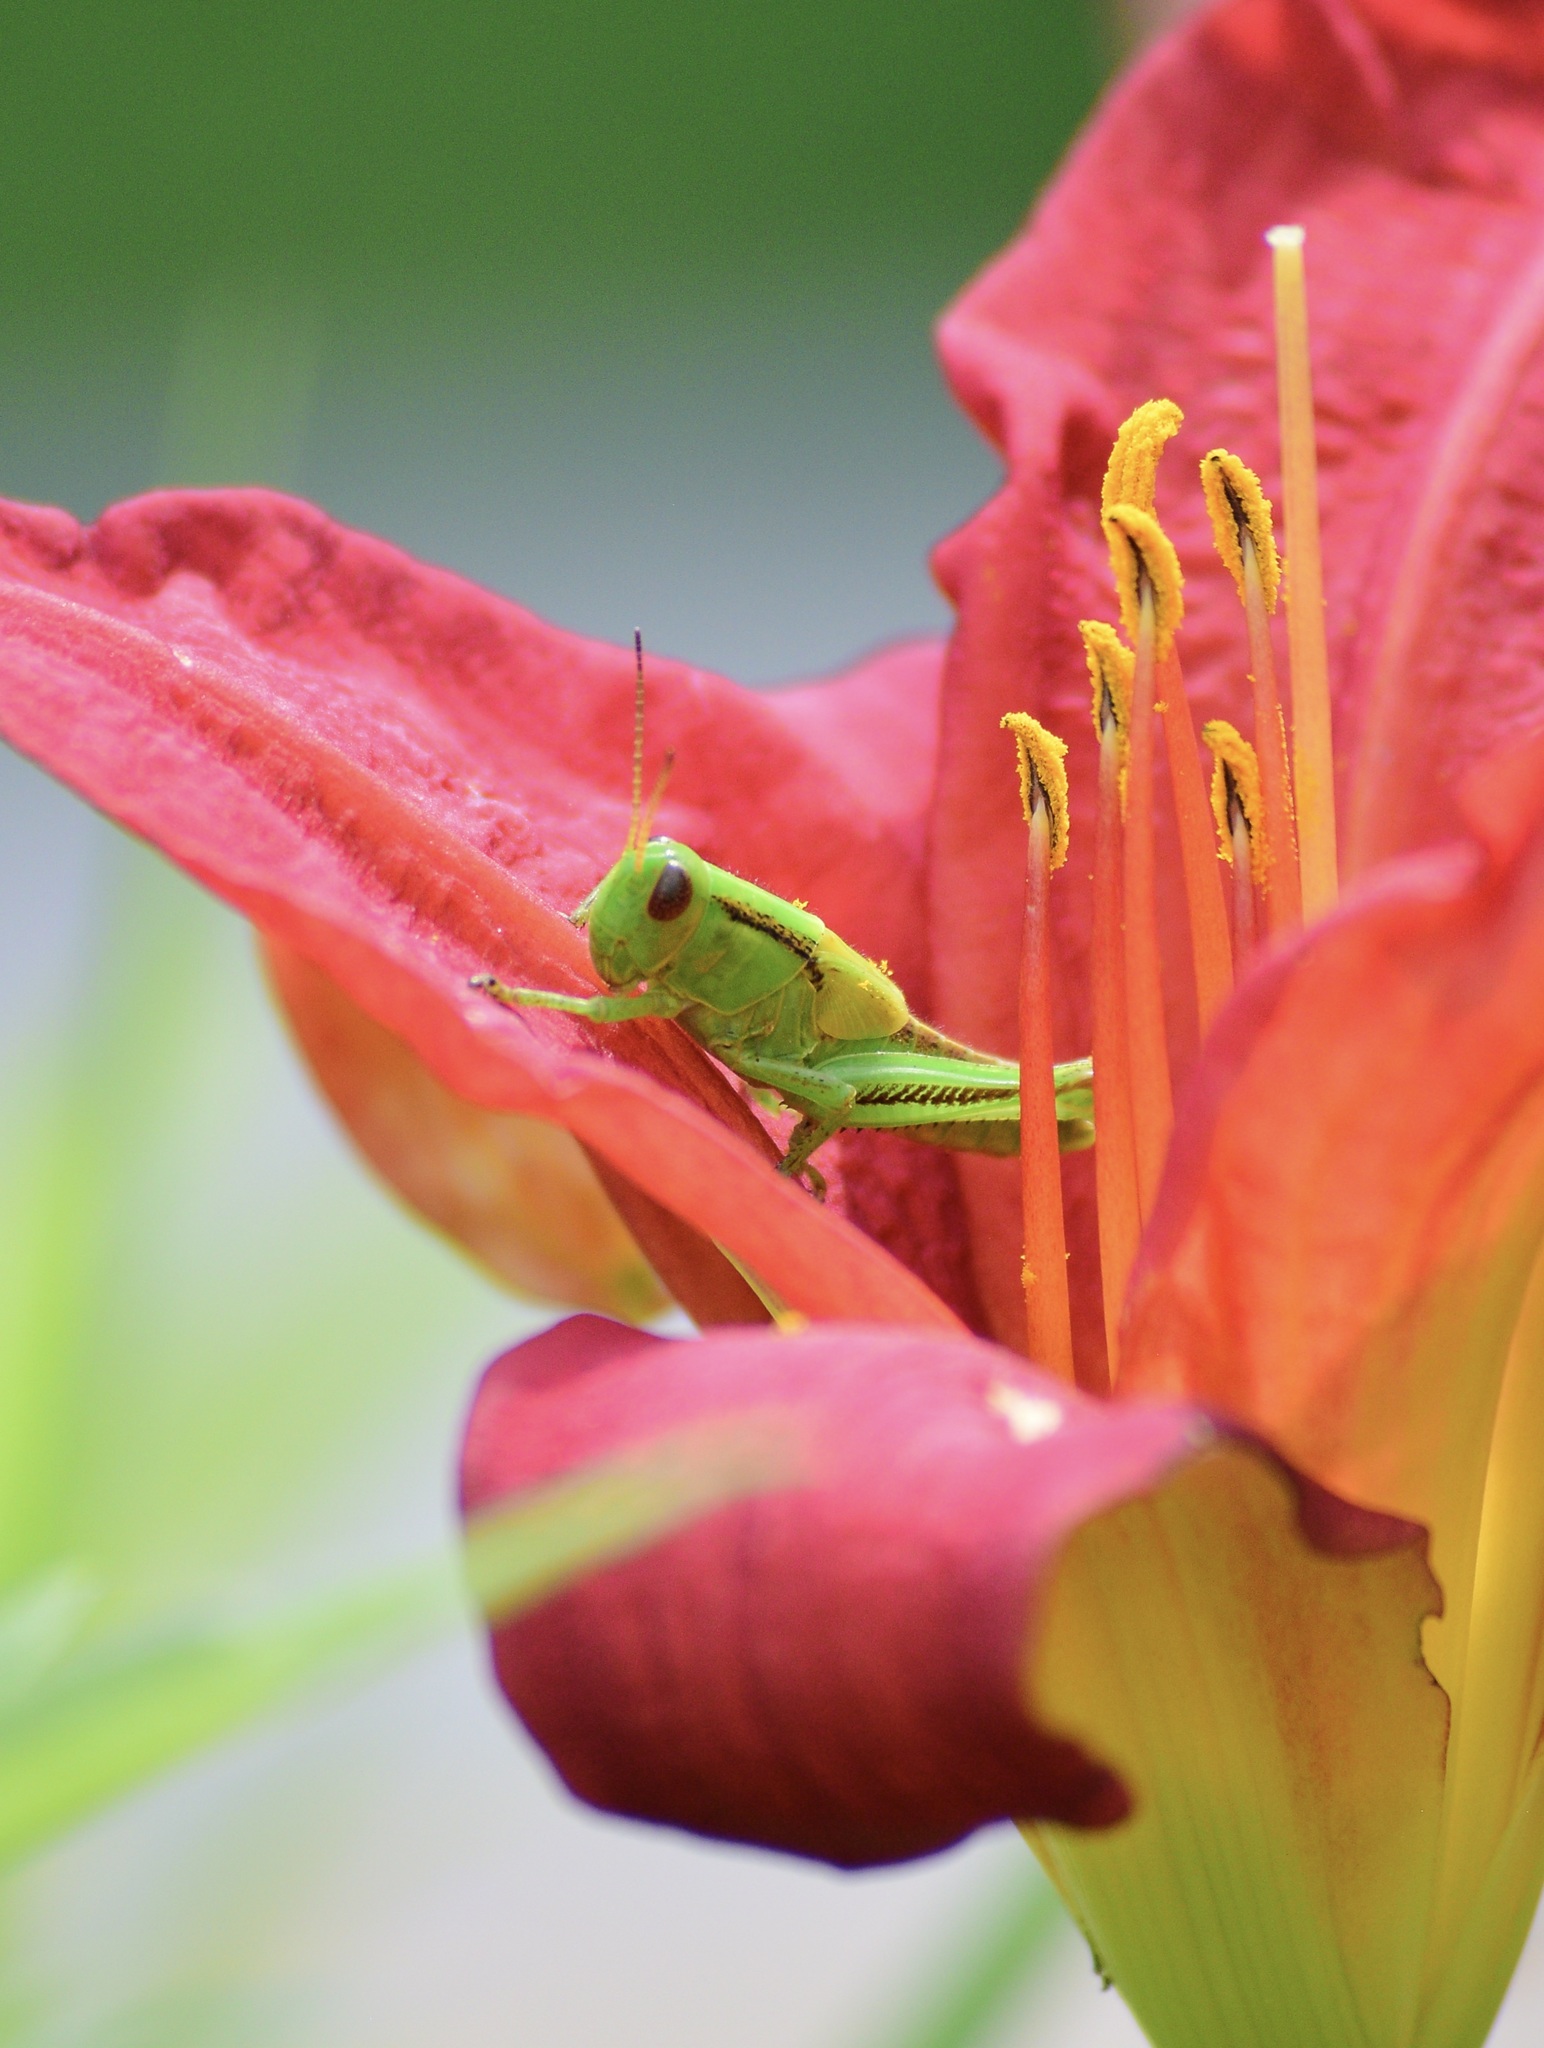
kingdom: Animalia
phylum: Arthropoda
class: Insecta
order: Orthoptera
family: Acrididae
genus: Melanoplus
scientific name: Melanoplus bivittatus
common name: Two-striped grasshopper
